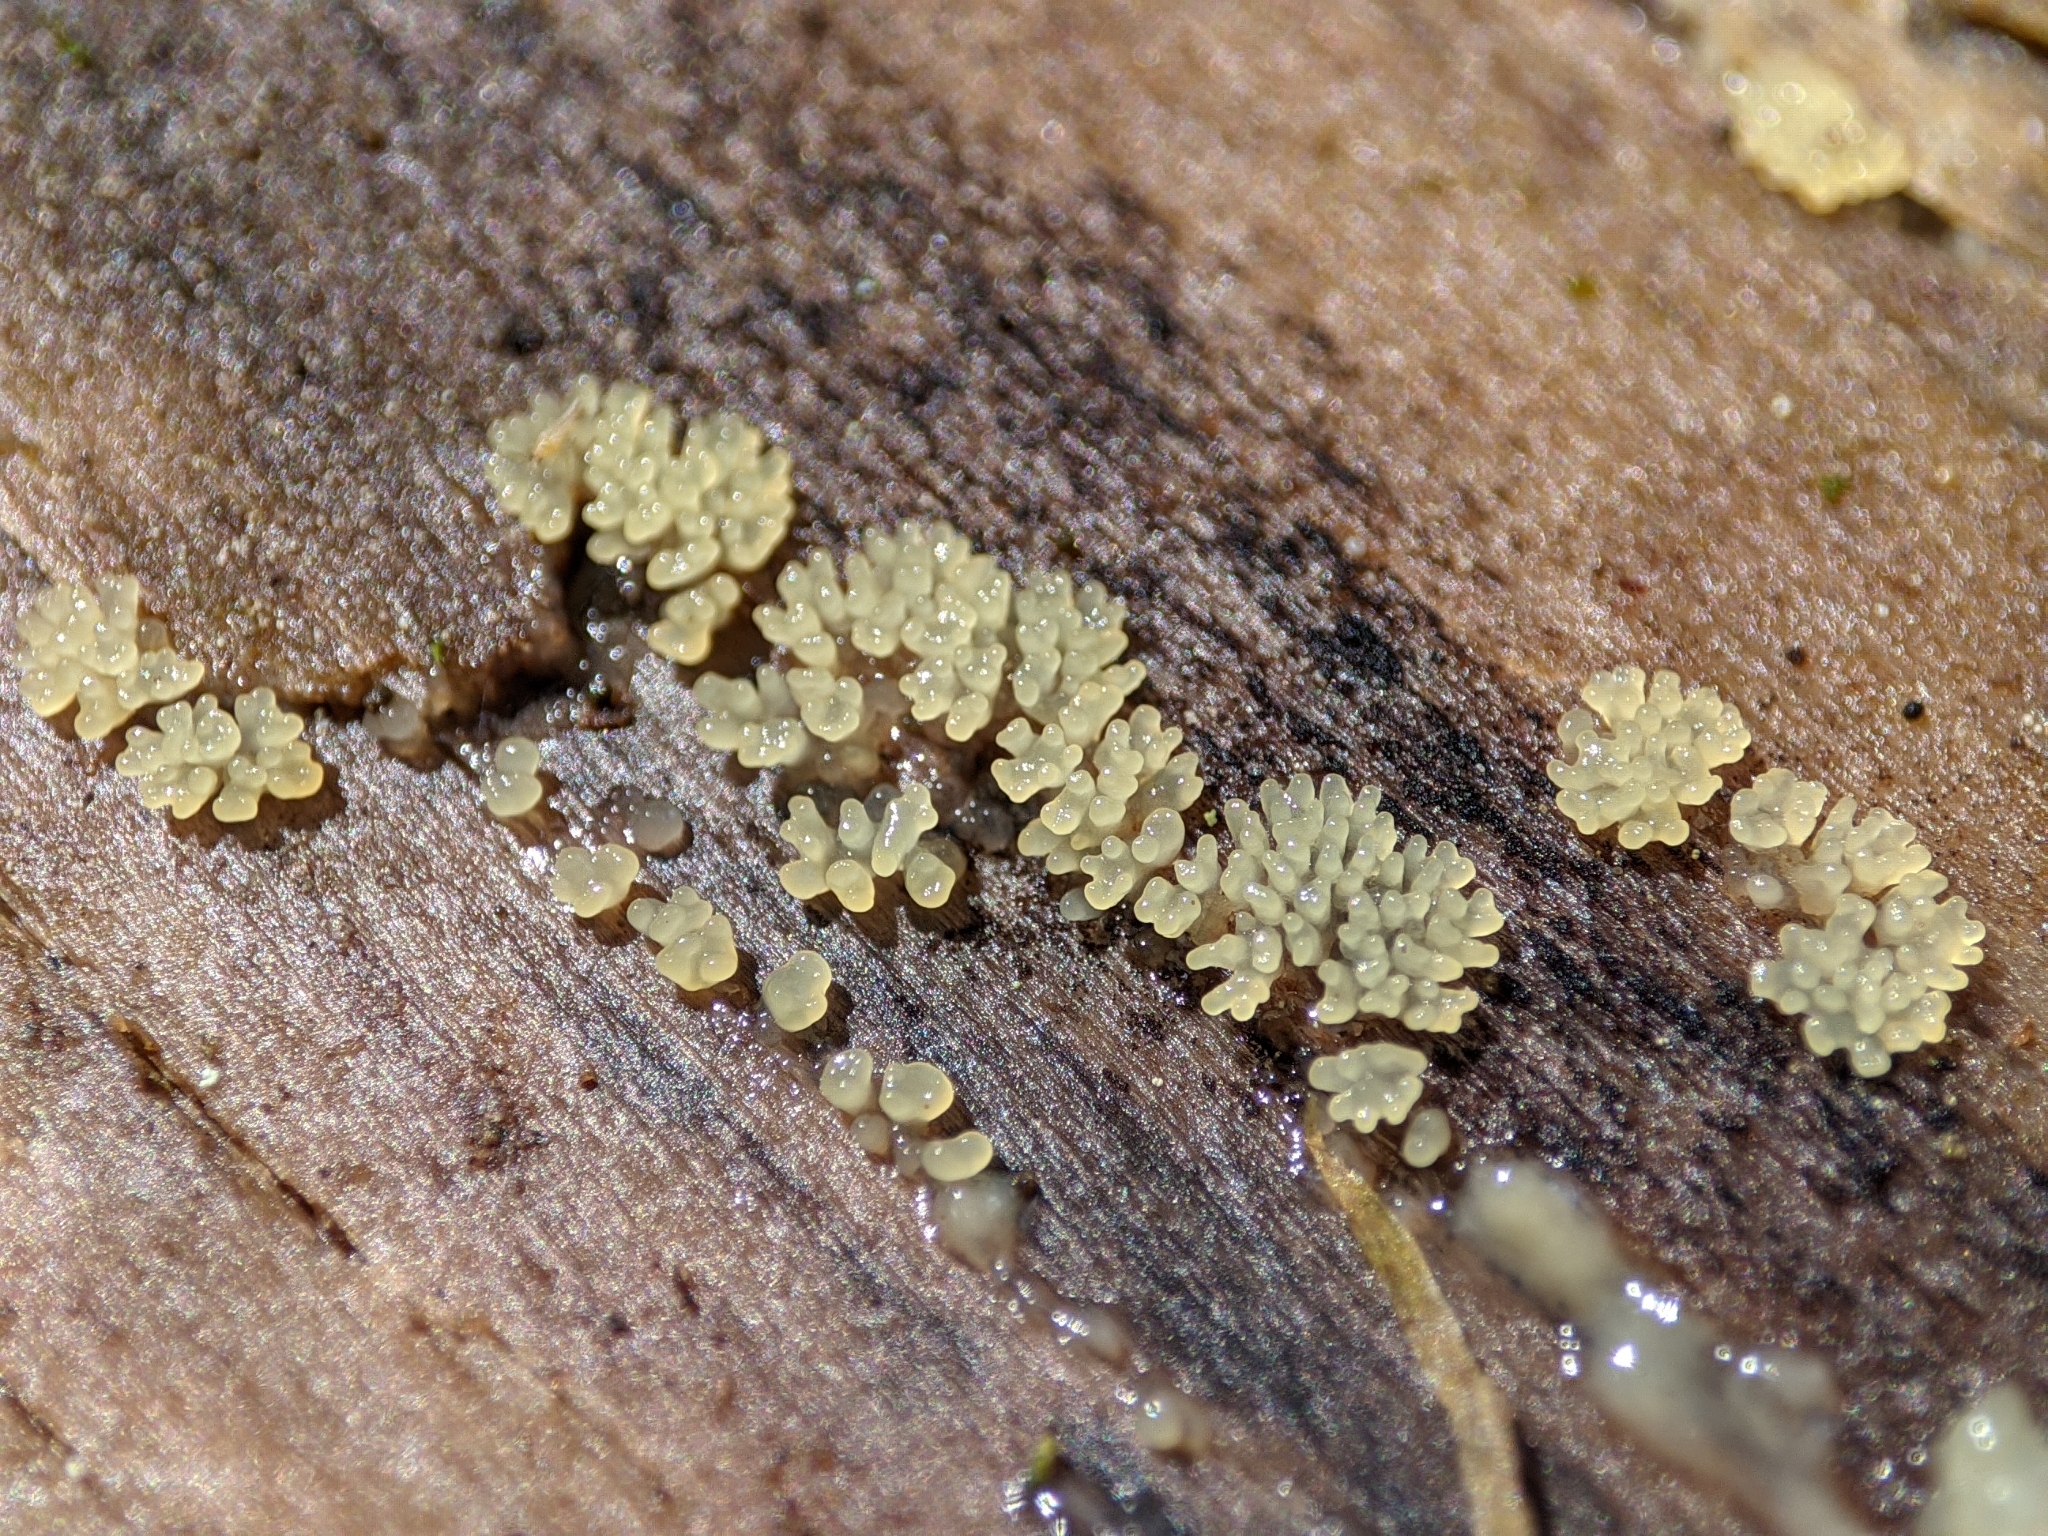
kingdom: Protozoa
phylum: Mycetozoa
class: Protosteliomycetes
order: Ceratiomyxales
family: Ceratiomyxaceae
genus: Ceratiomyxa
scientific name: Ceratiomyxa fruticulosa
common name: Honeycomb coral slime mold
